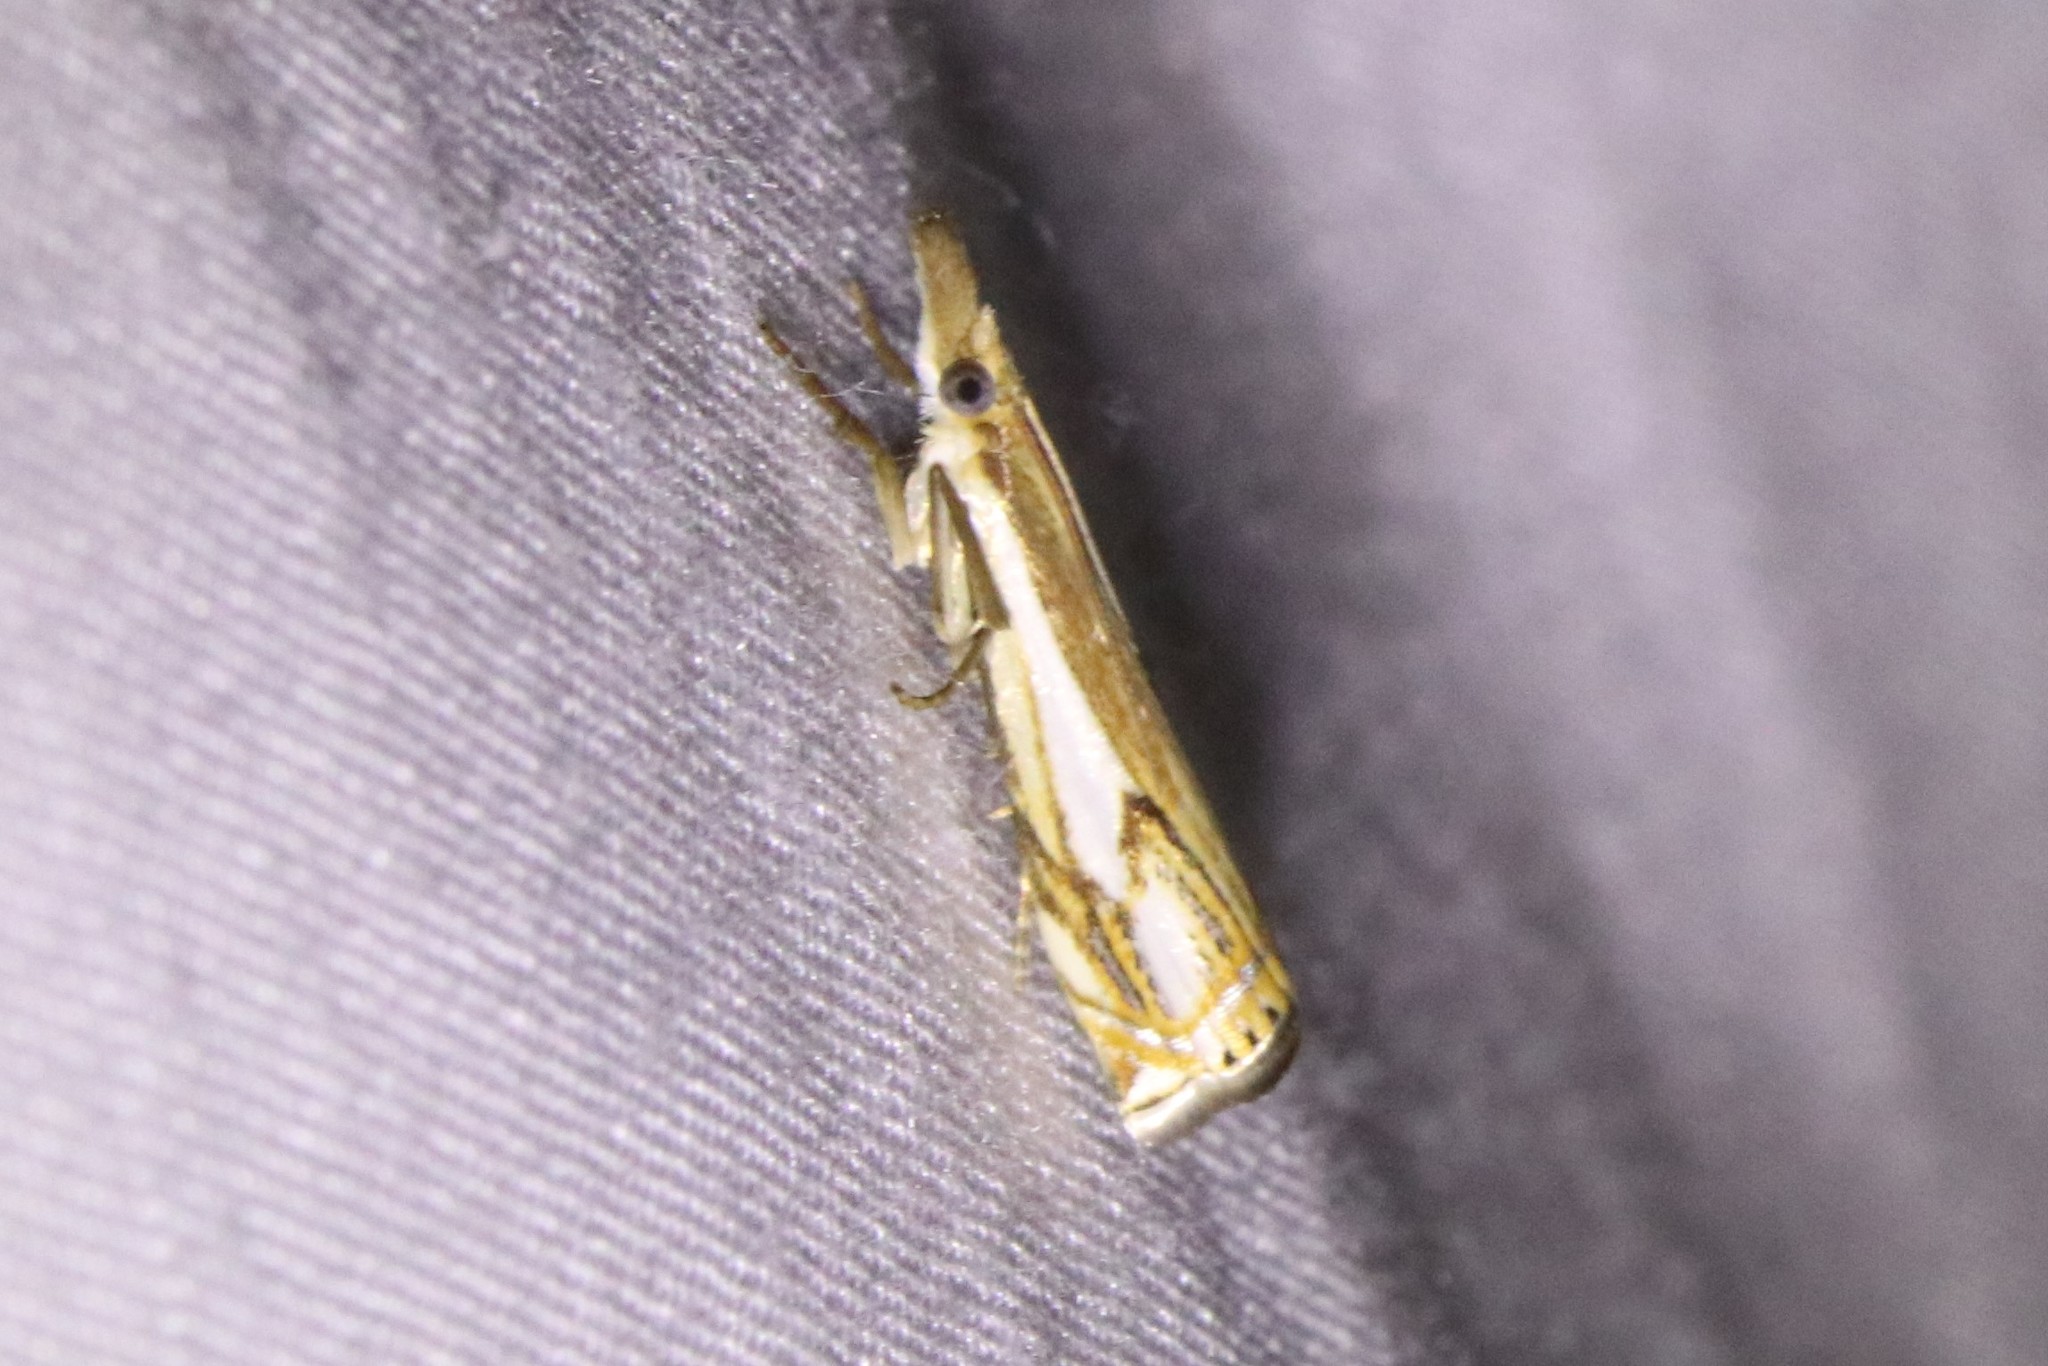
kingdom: Animalia
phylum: Arthropoda
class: Insecta
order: Lepidoptera
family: Crambidae
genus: Crambus
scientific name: Crambus agitatellus
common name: Double-banded grass-veneer
